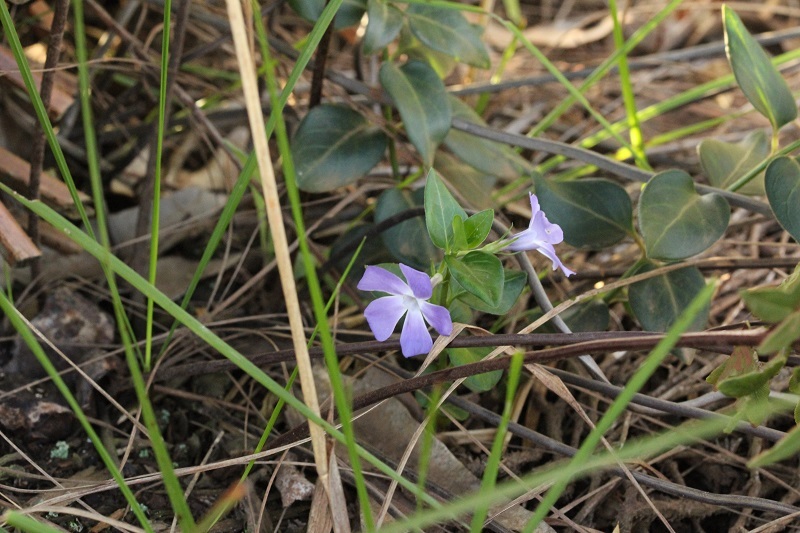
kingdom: Plantae
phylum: Tracheophyta
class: Magnoliopsida
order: Gentianales
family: Apocynaceae
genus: Vinca
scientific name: Vinca major
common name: Greater periwinkle
